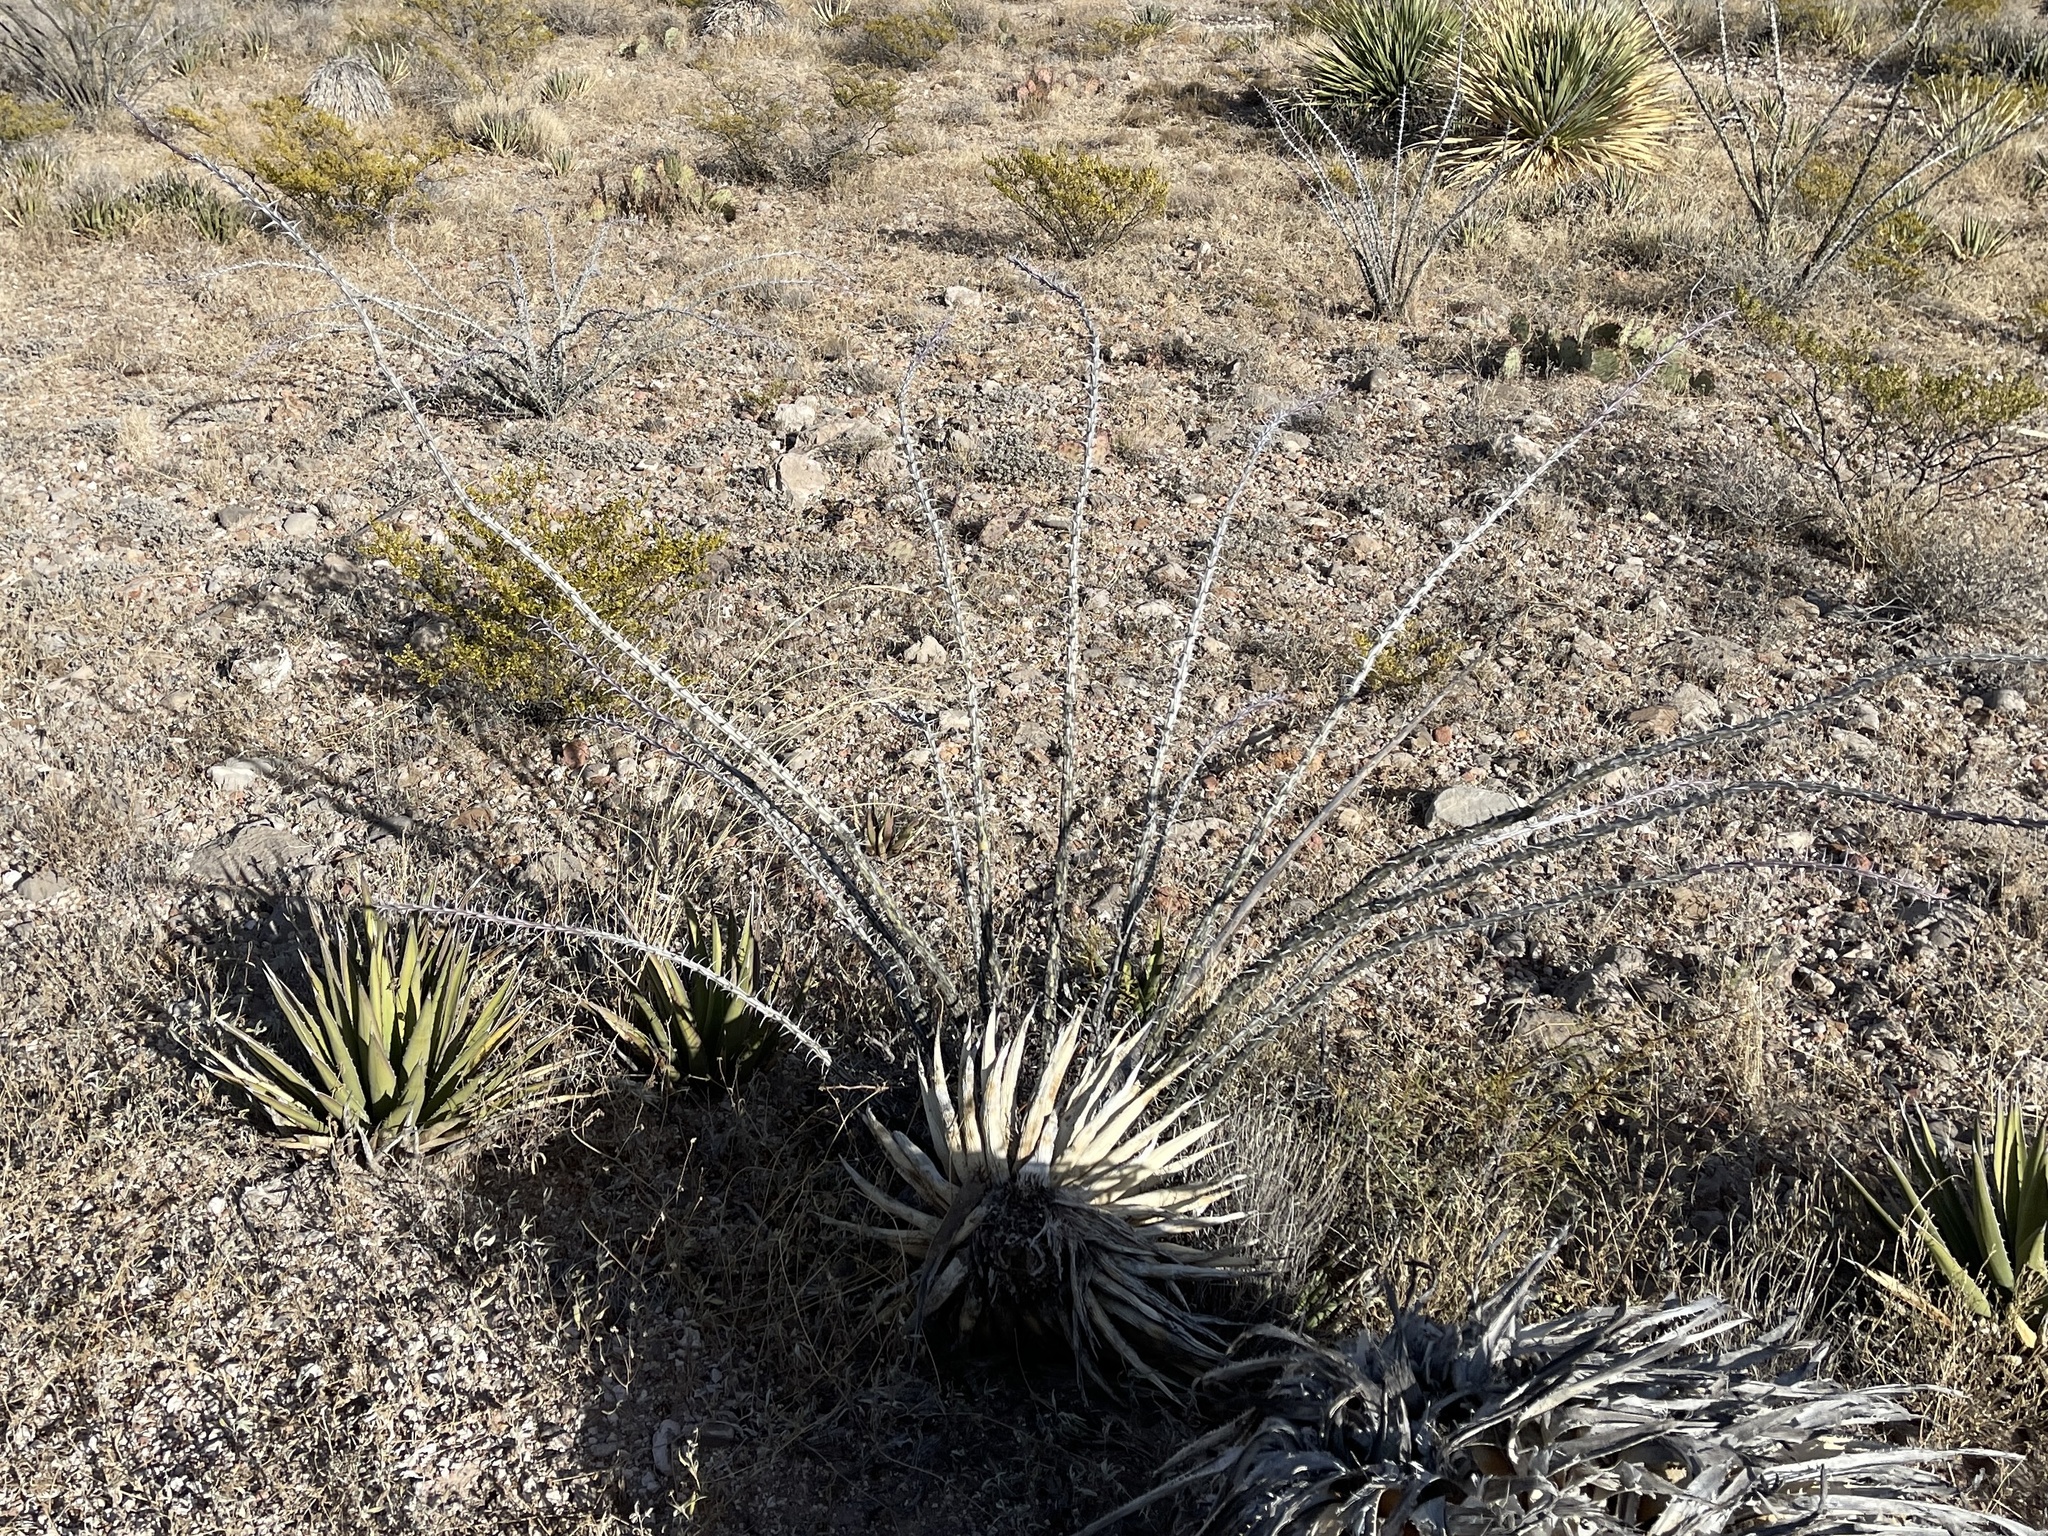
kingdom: Plantae
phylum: Tracheophyta
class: Magnoliopsida
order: Ericales
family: Fouquieriaceae
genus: Fouquieria
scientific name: Fouquieria splendens
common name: Vine-cactus
